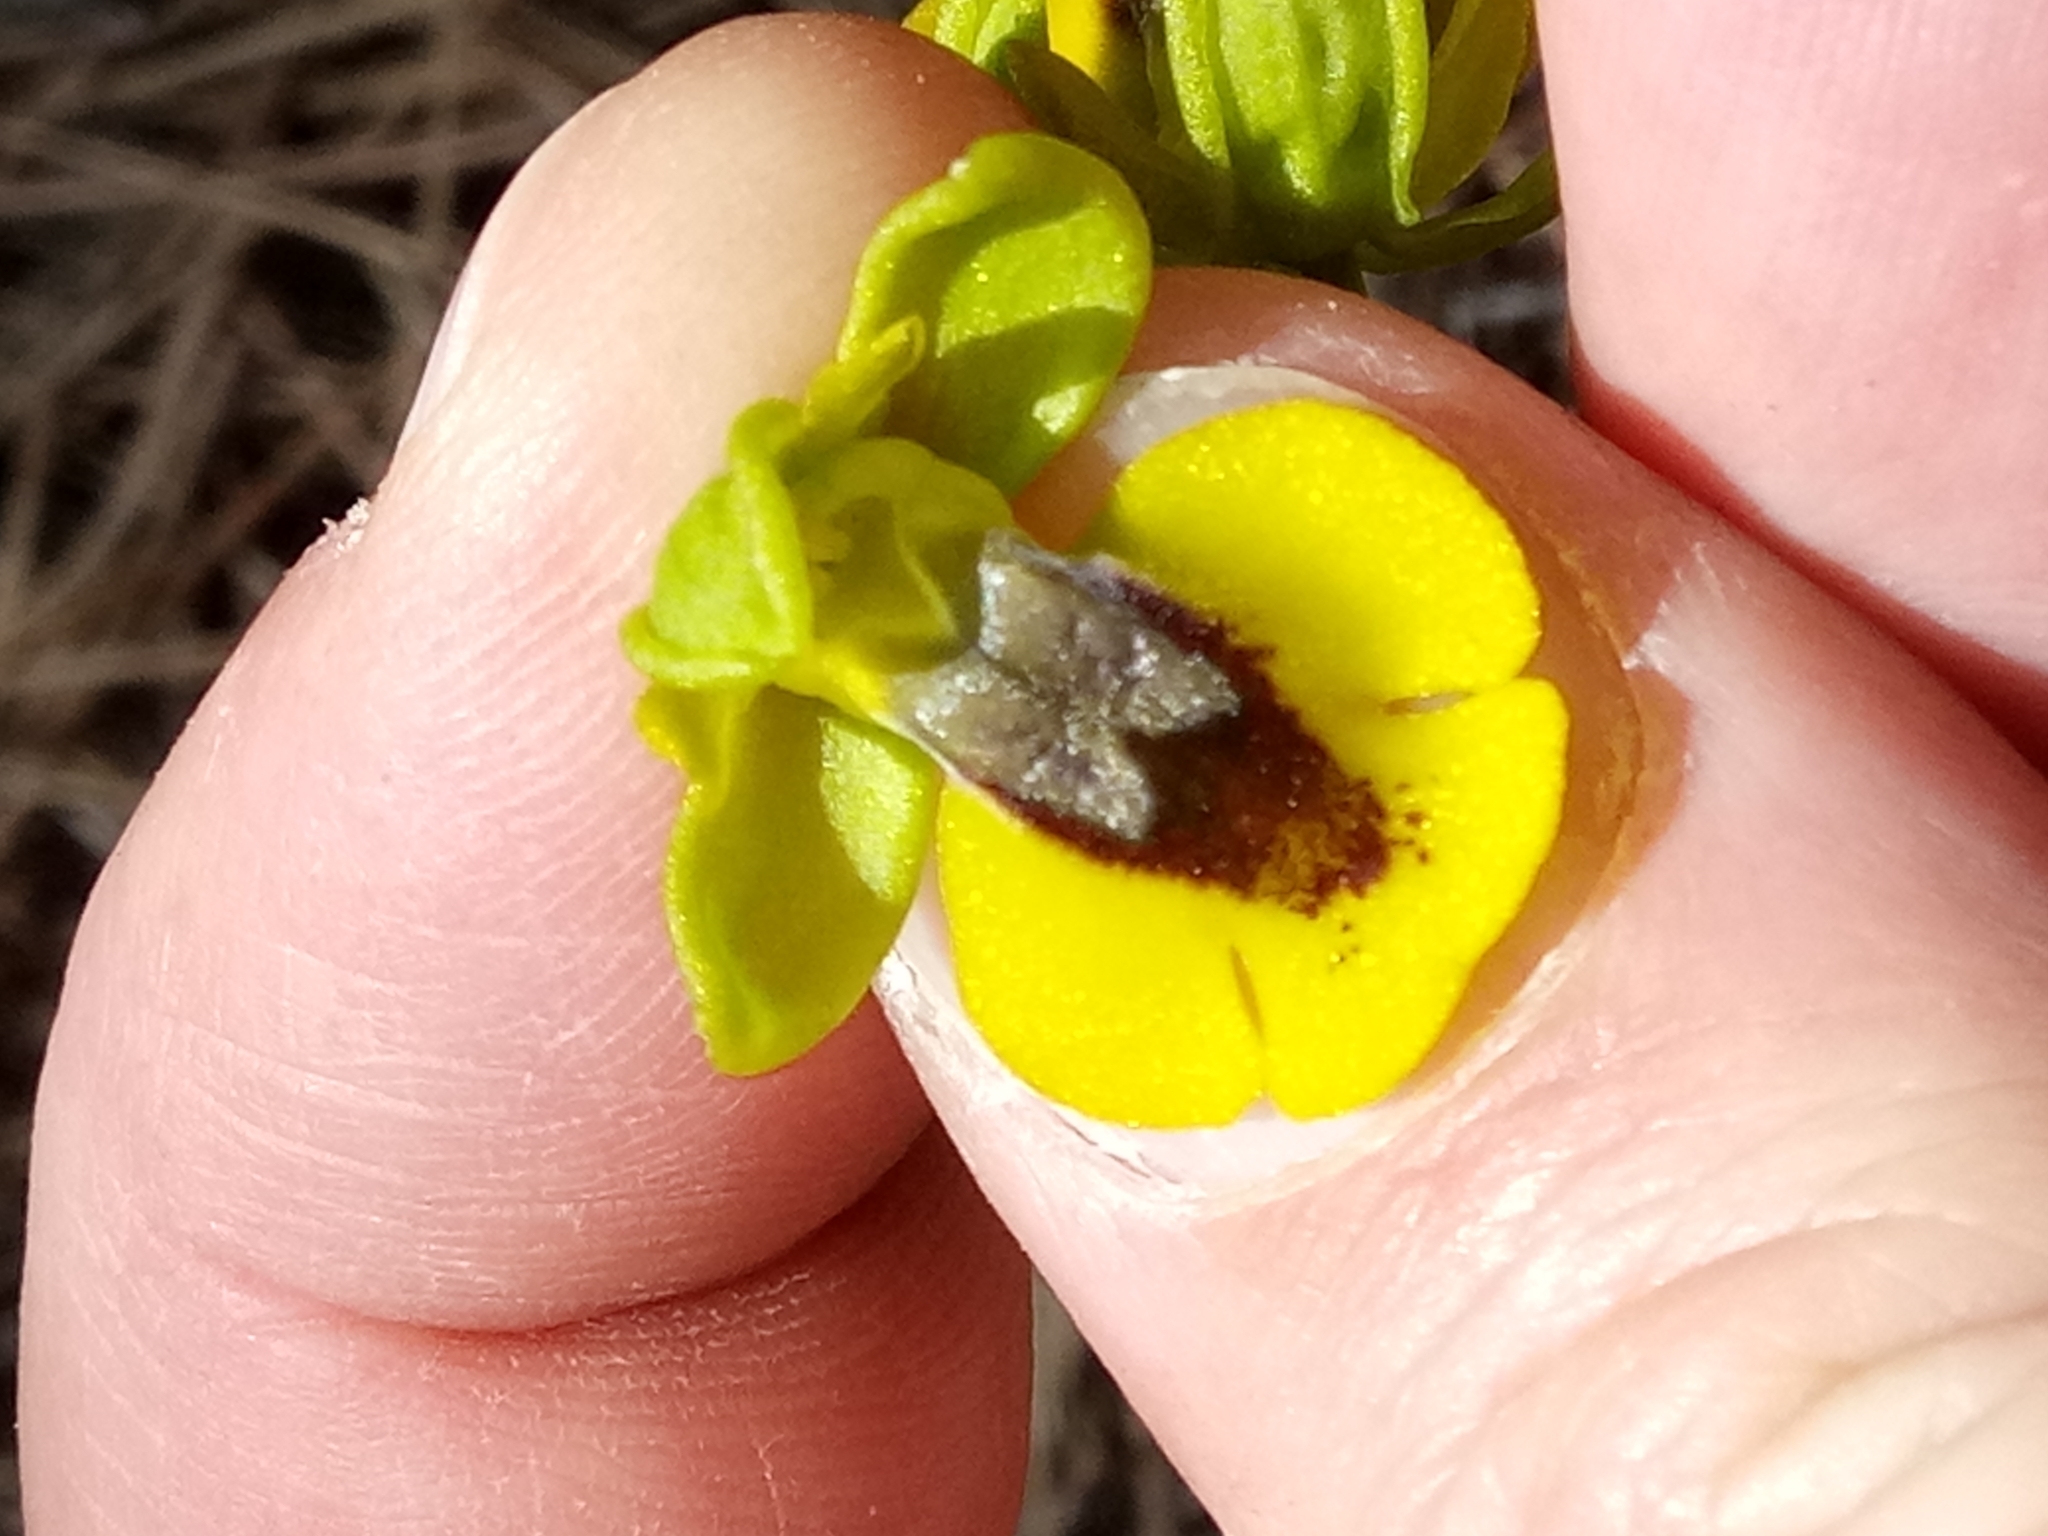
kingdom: Plantae
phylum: Tracheophyta
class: Liliopsida
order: Asparagales
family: Orchidaceae
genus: Ophrys
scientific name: Ophrys lutea
